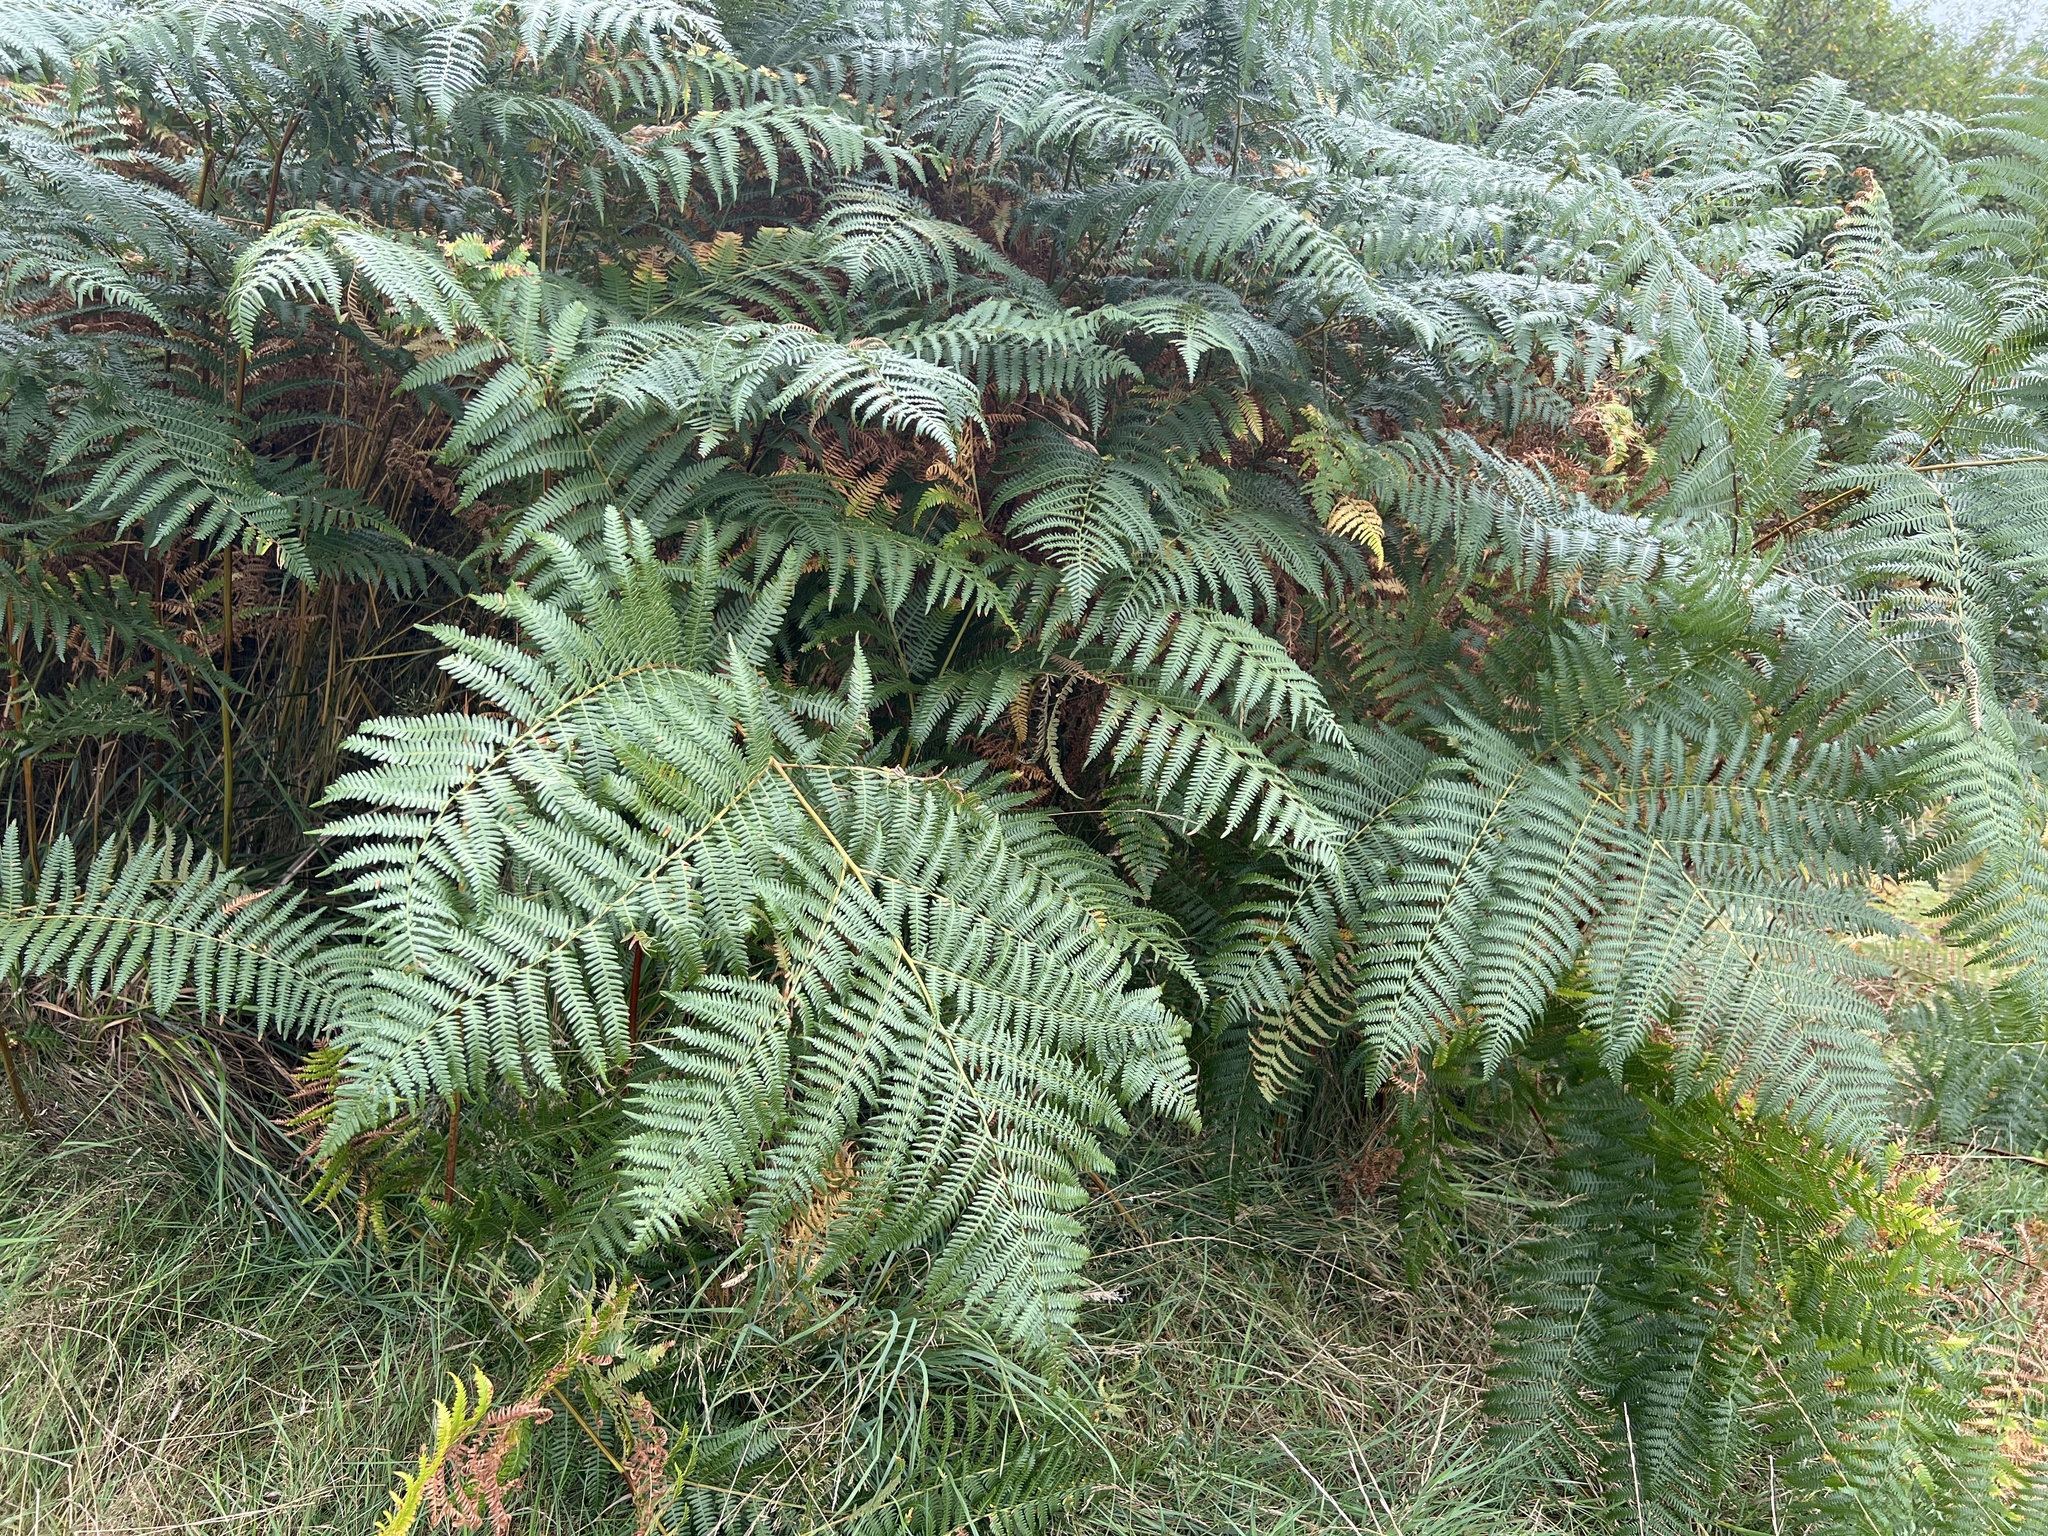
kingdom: Plantae
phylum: Tracheophyta
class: Polypodiopsida
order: Polypodiales
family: Dennstaedtiaceae
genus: Pteridium
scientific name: Pteridium aquilinum
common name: Bracken
